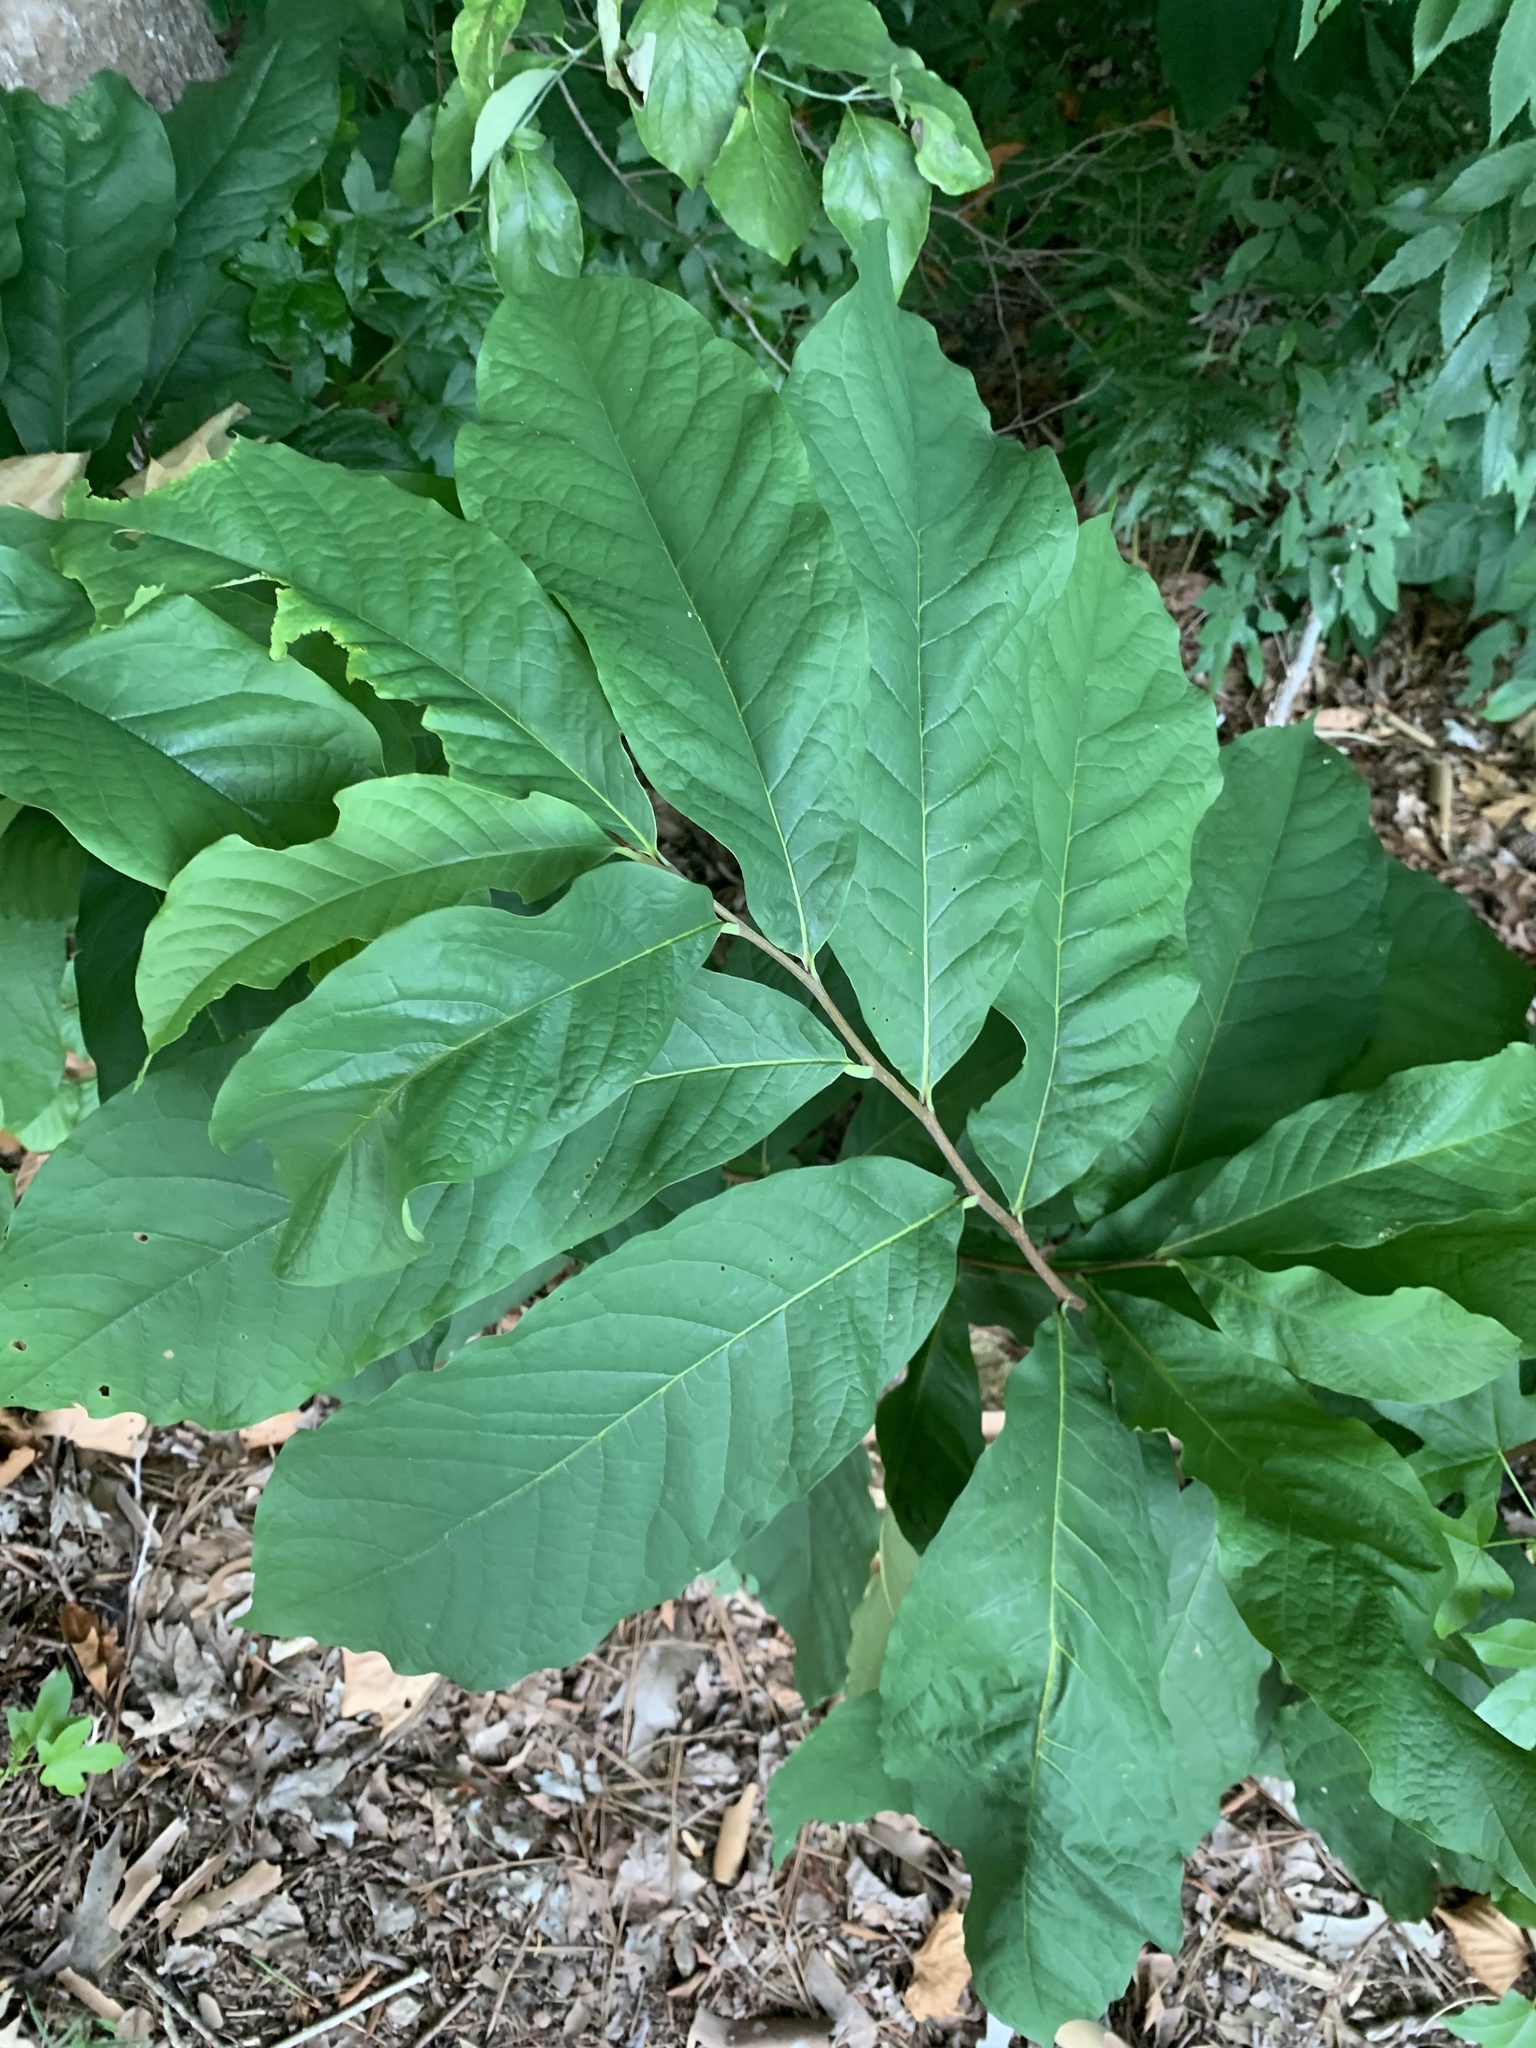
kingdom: Plantae
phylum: Tracheophyta
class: Magnoliopsida
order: Magnoliales
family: Annonaceae
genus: Asimina
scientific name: Asimina triloba
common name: Dog-banana
